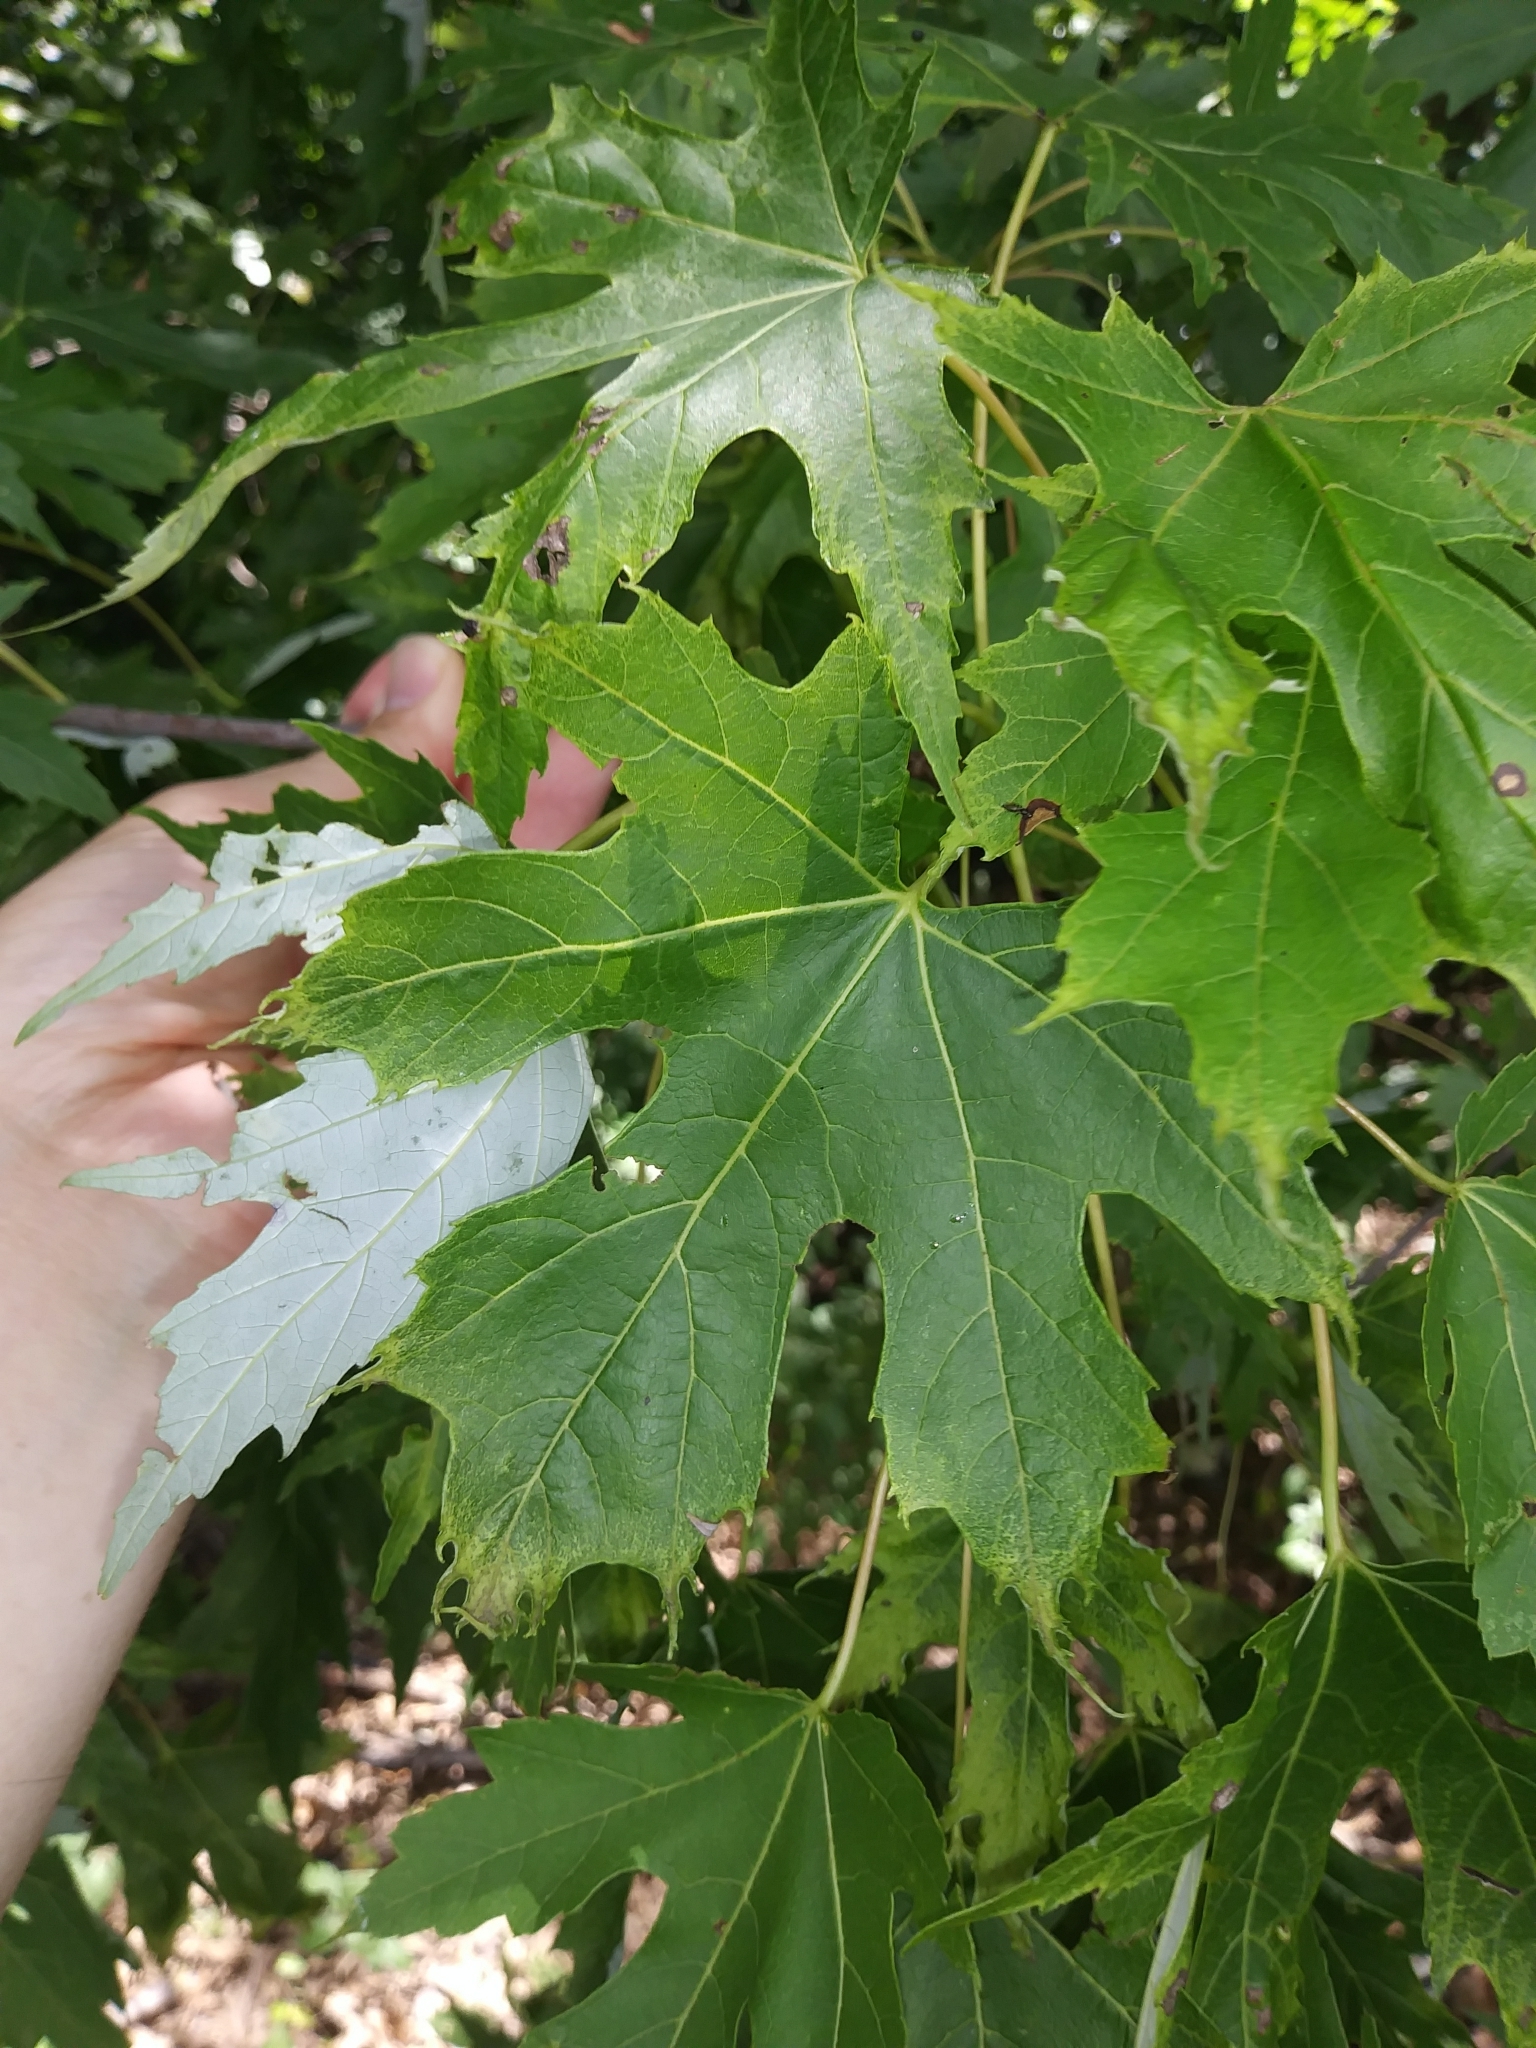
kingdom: Plantae
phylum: Tracheophyta
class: Magnoliopsida
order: Sapindales
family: Sapindaceae
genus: Acer
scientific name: Acer saccharinum
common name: Silver maple
